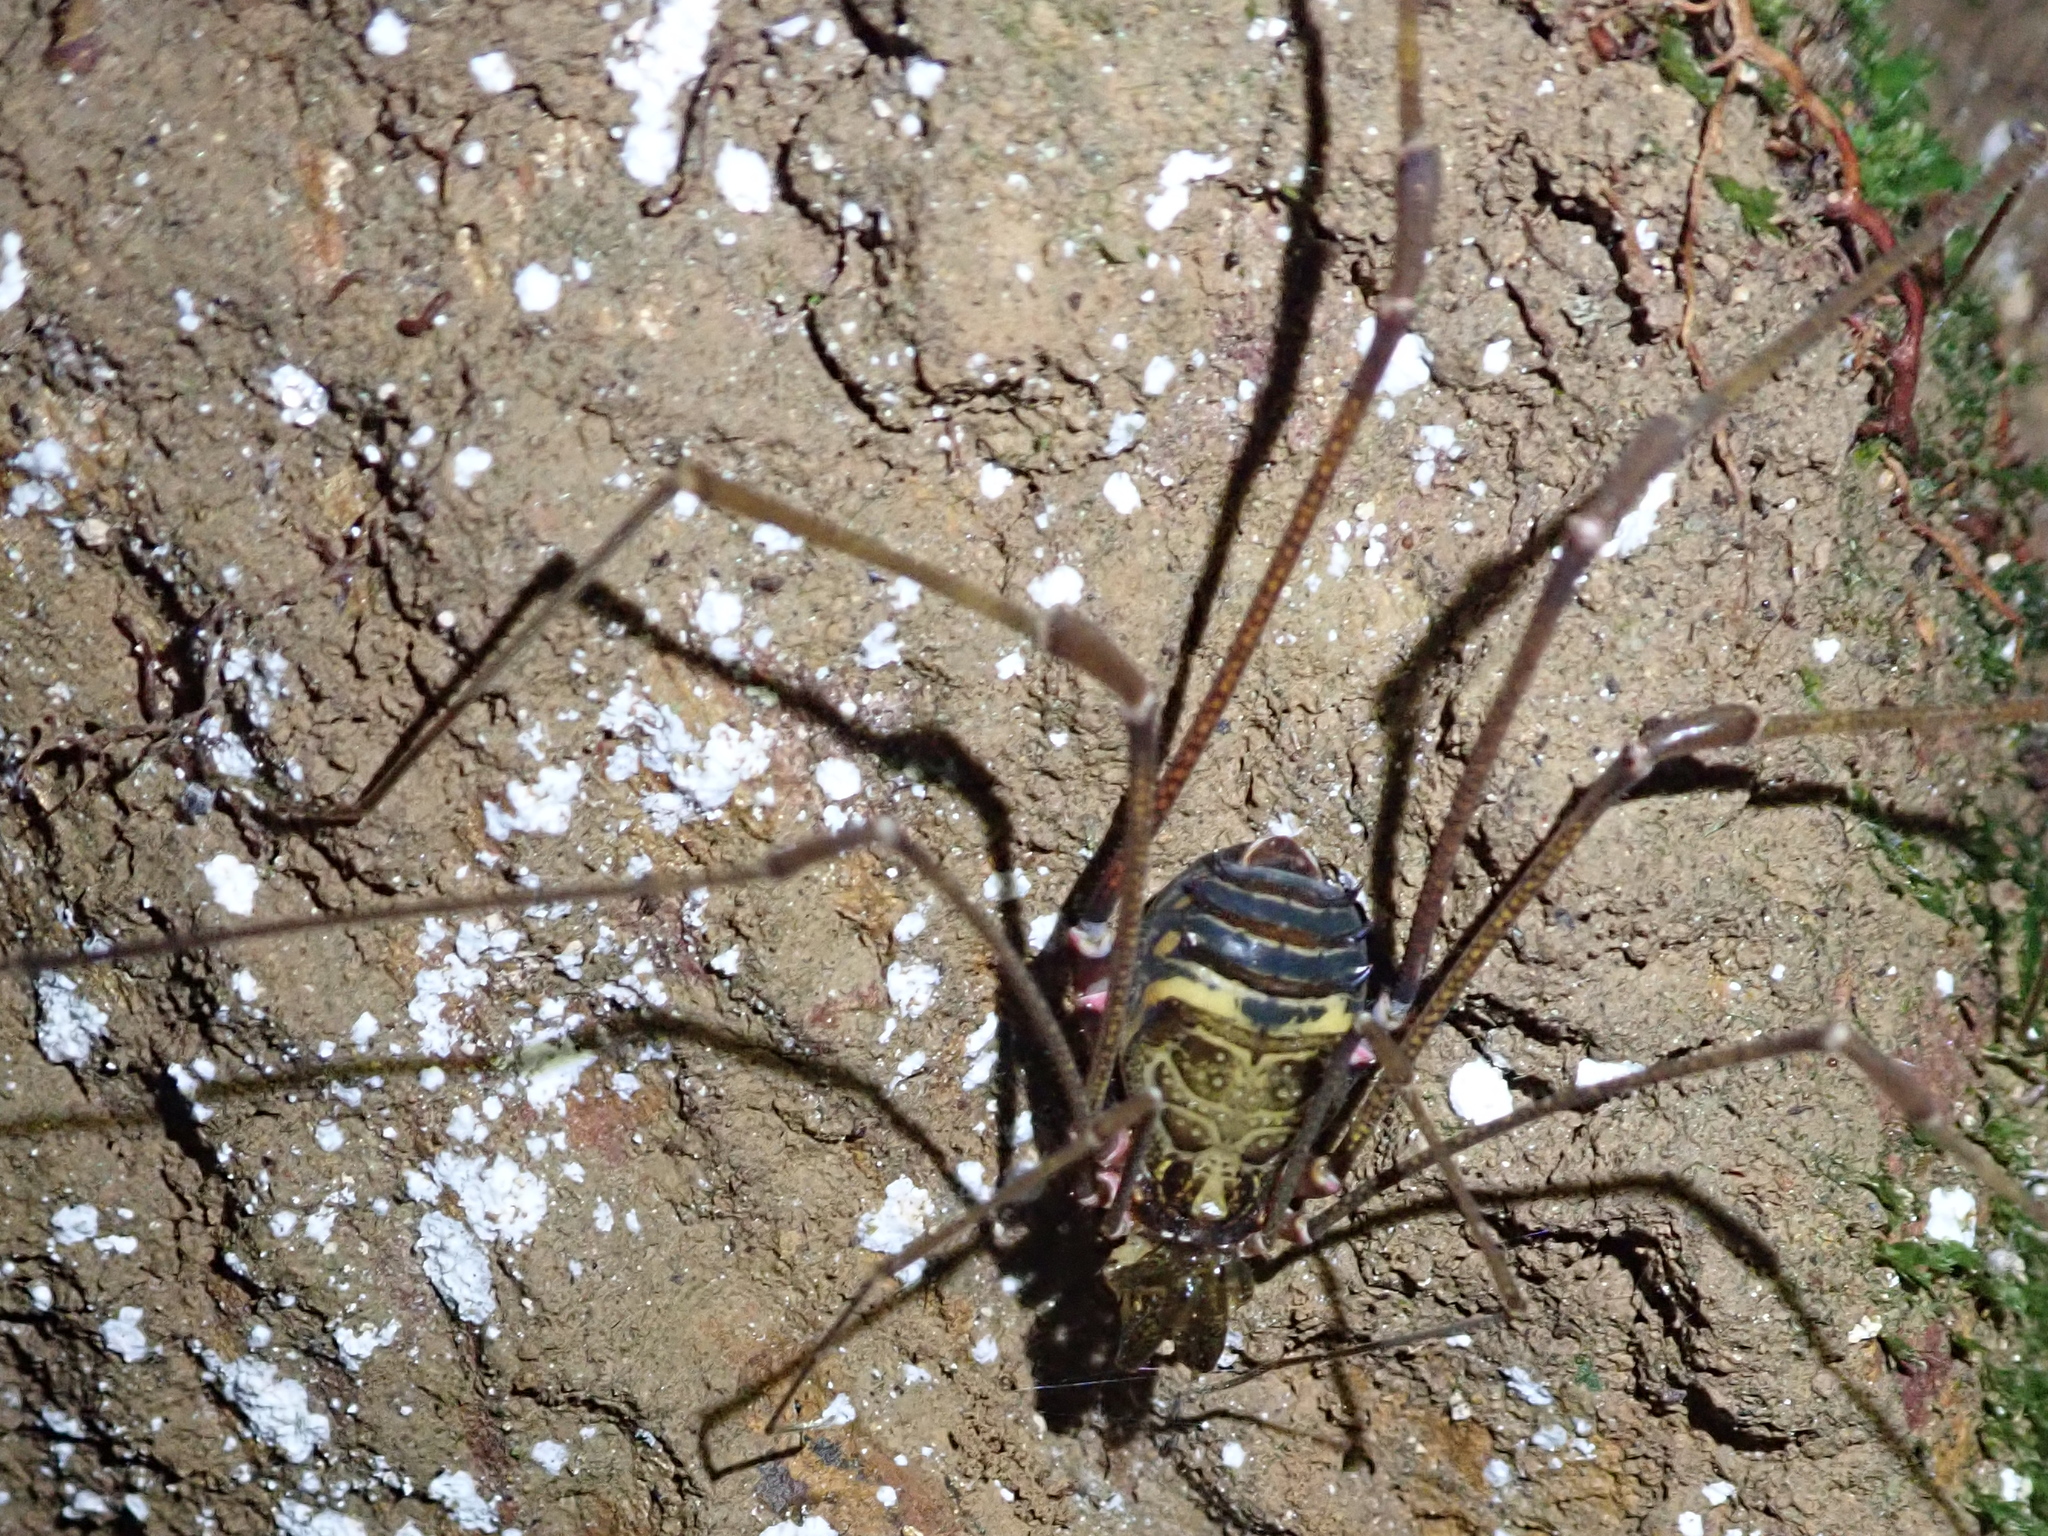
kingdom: Animalia
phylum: Arthropoda
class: Arachnida
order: Opiliones
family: Gonyleptidae
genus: Serracutisoma
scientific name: Serracutisoma inerme
